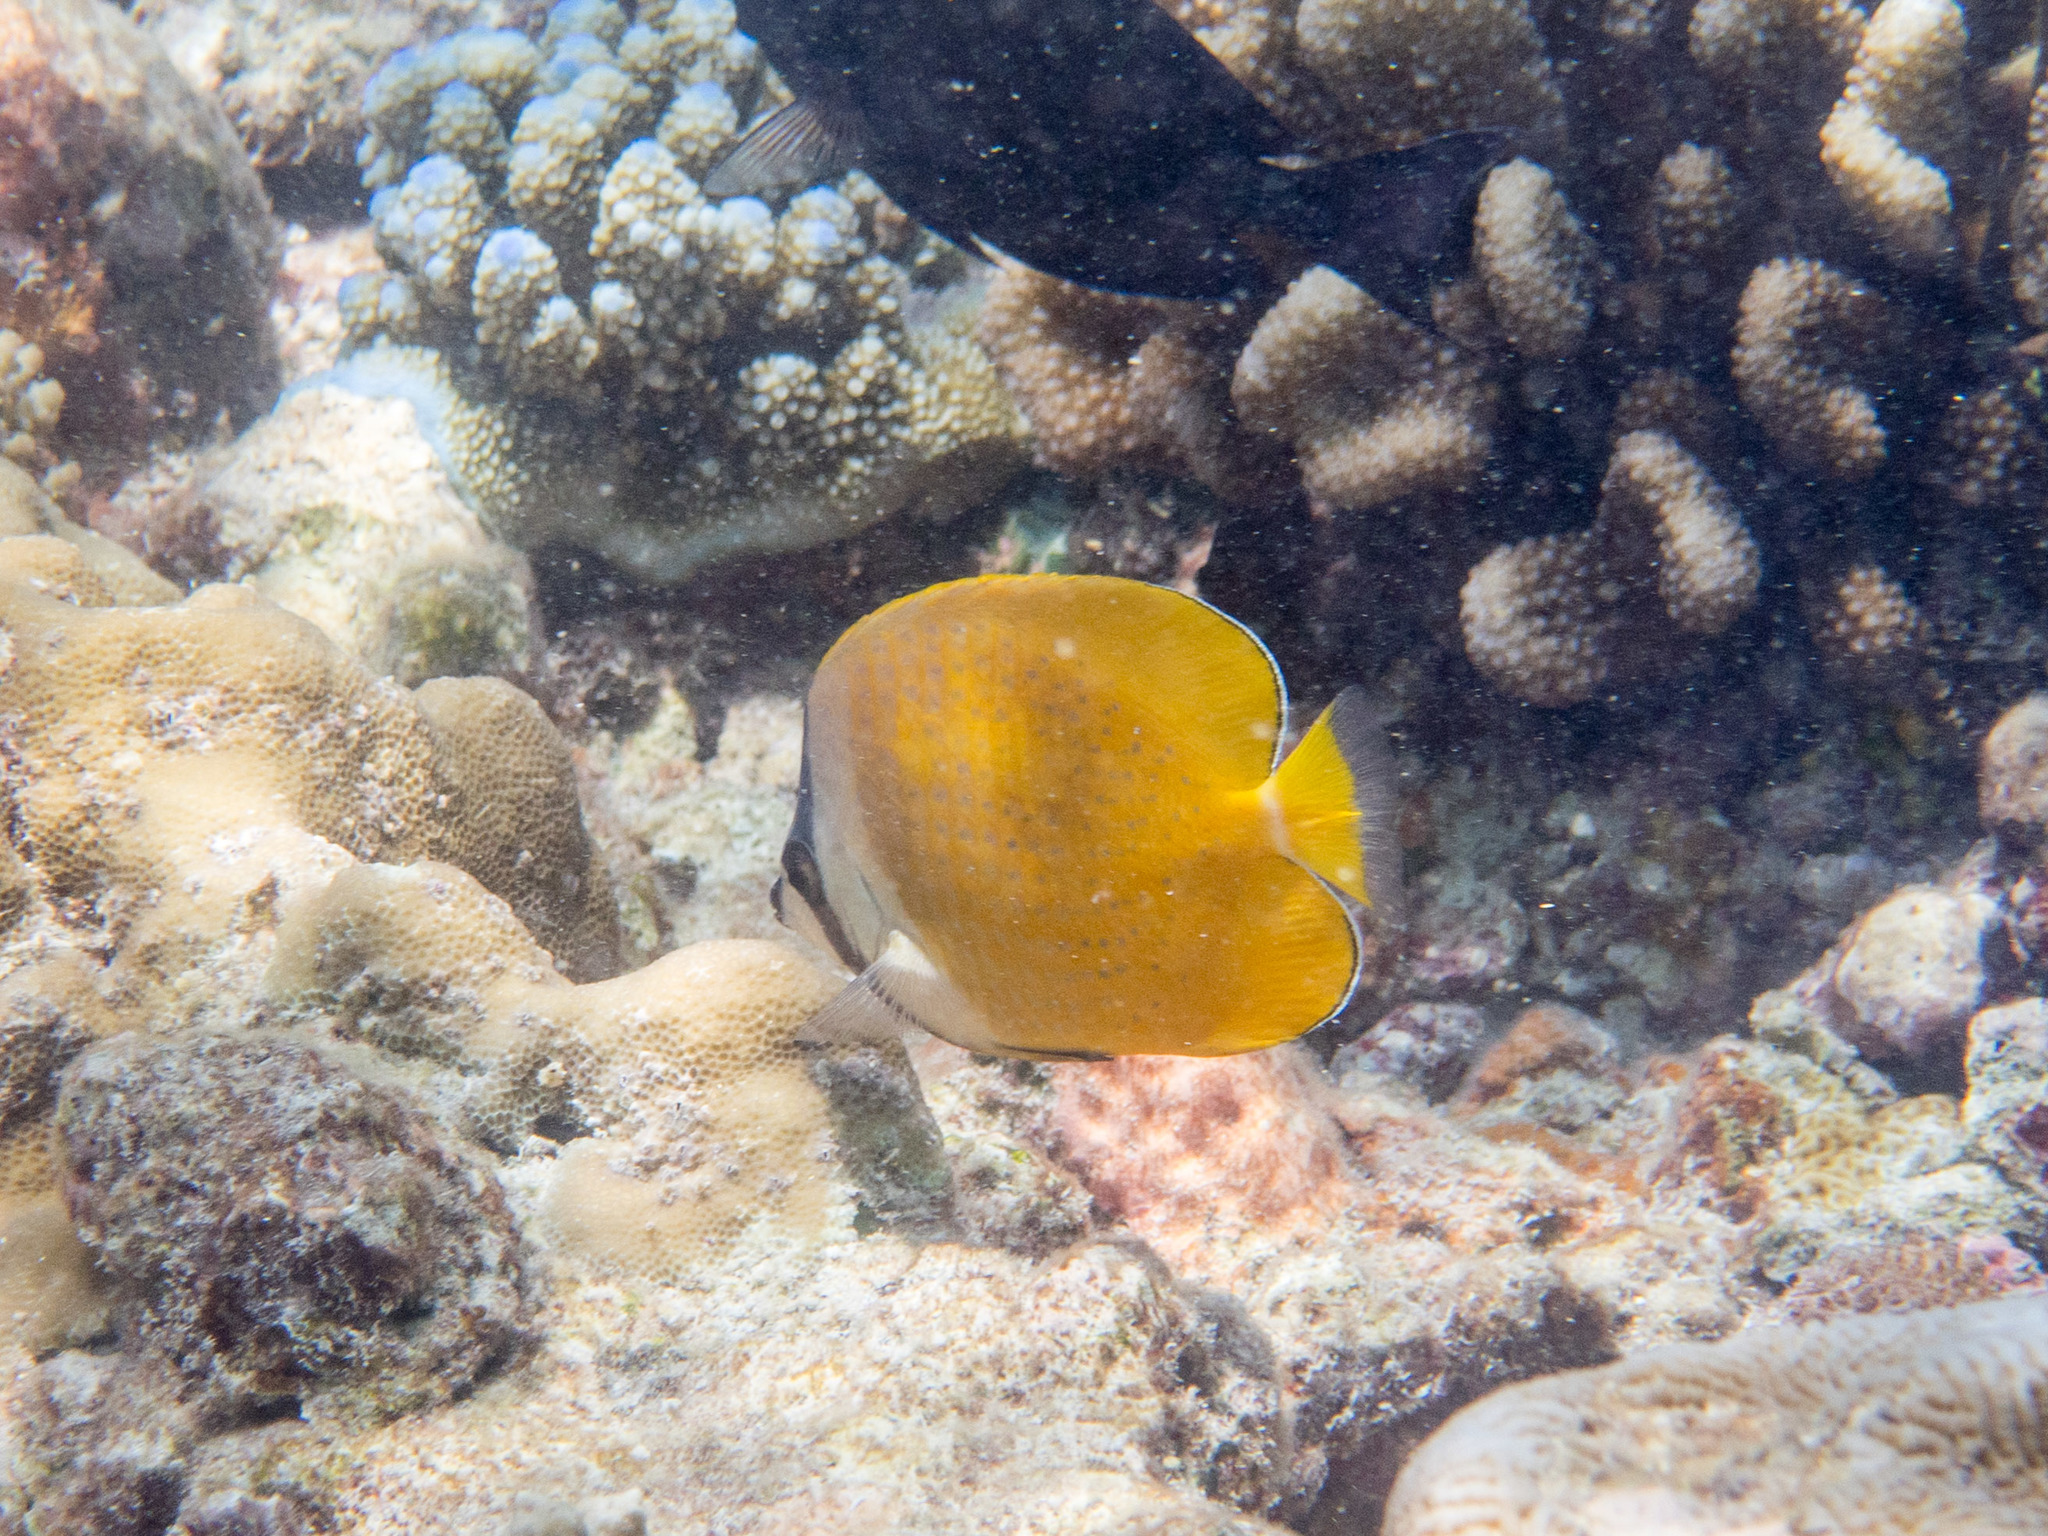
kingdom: Animalia
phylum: Chordata
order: Perciformes
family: Chaetodontidae
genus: Chaetodon
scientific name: Chaetodon kleinii
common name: Klein's butterflyfish
